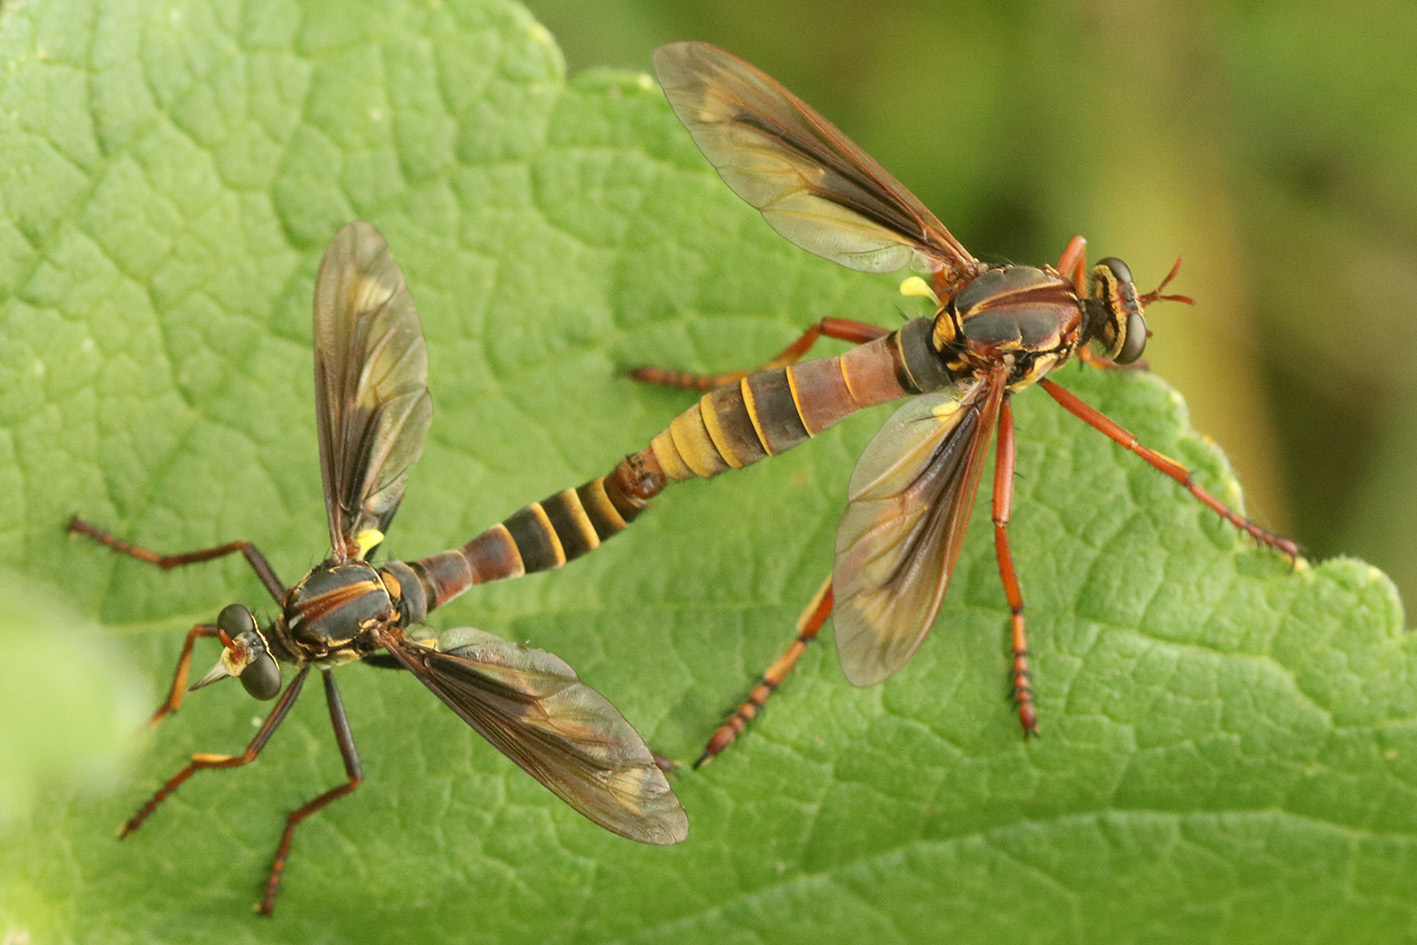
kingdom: Animalia
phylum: Arthropoda
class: Insecta
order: Diptera
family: Asilidae
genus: Blepharepium
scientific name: Blepharepium cajennense
